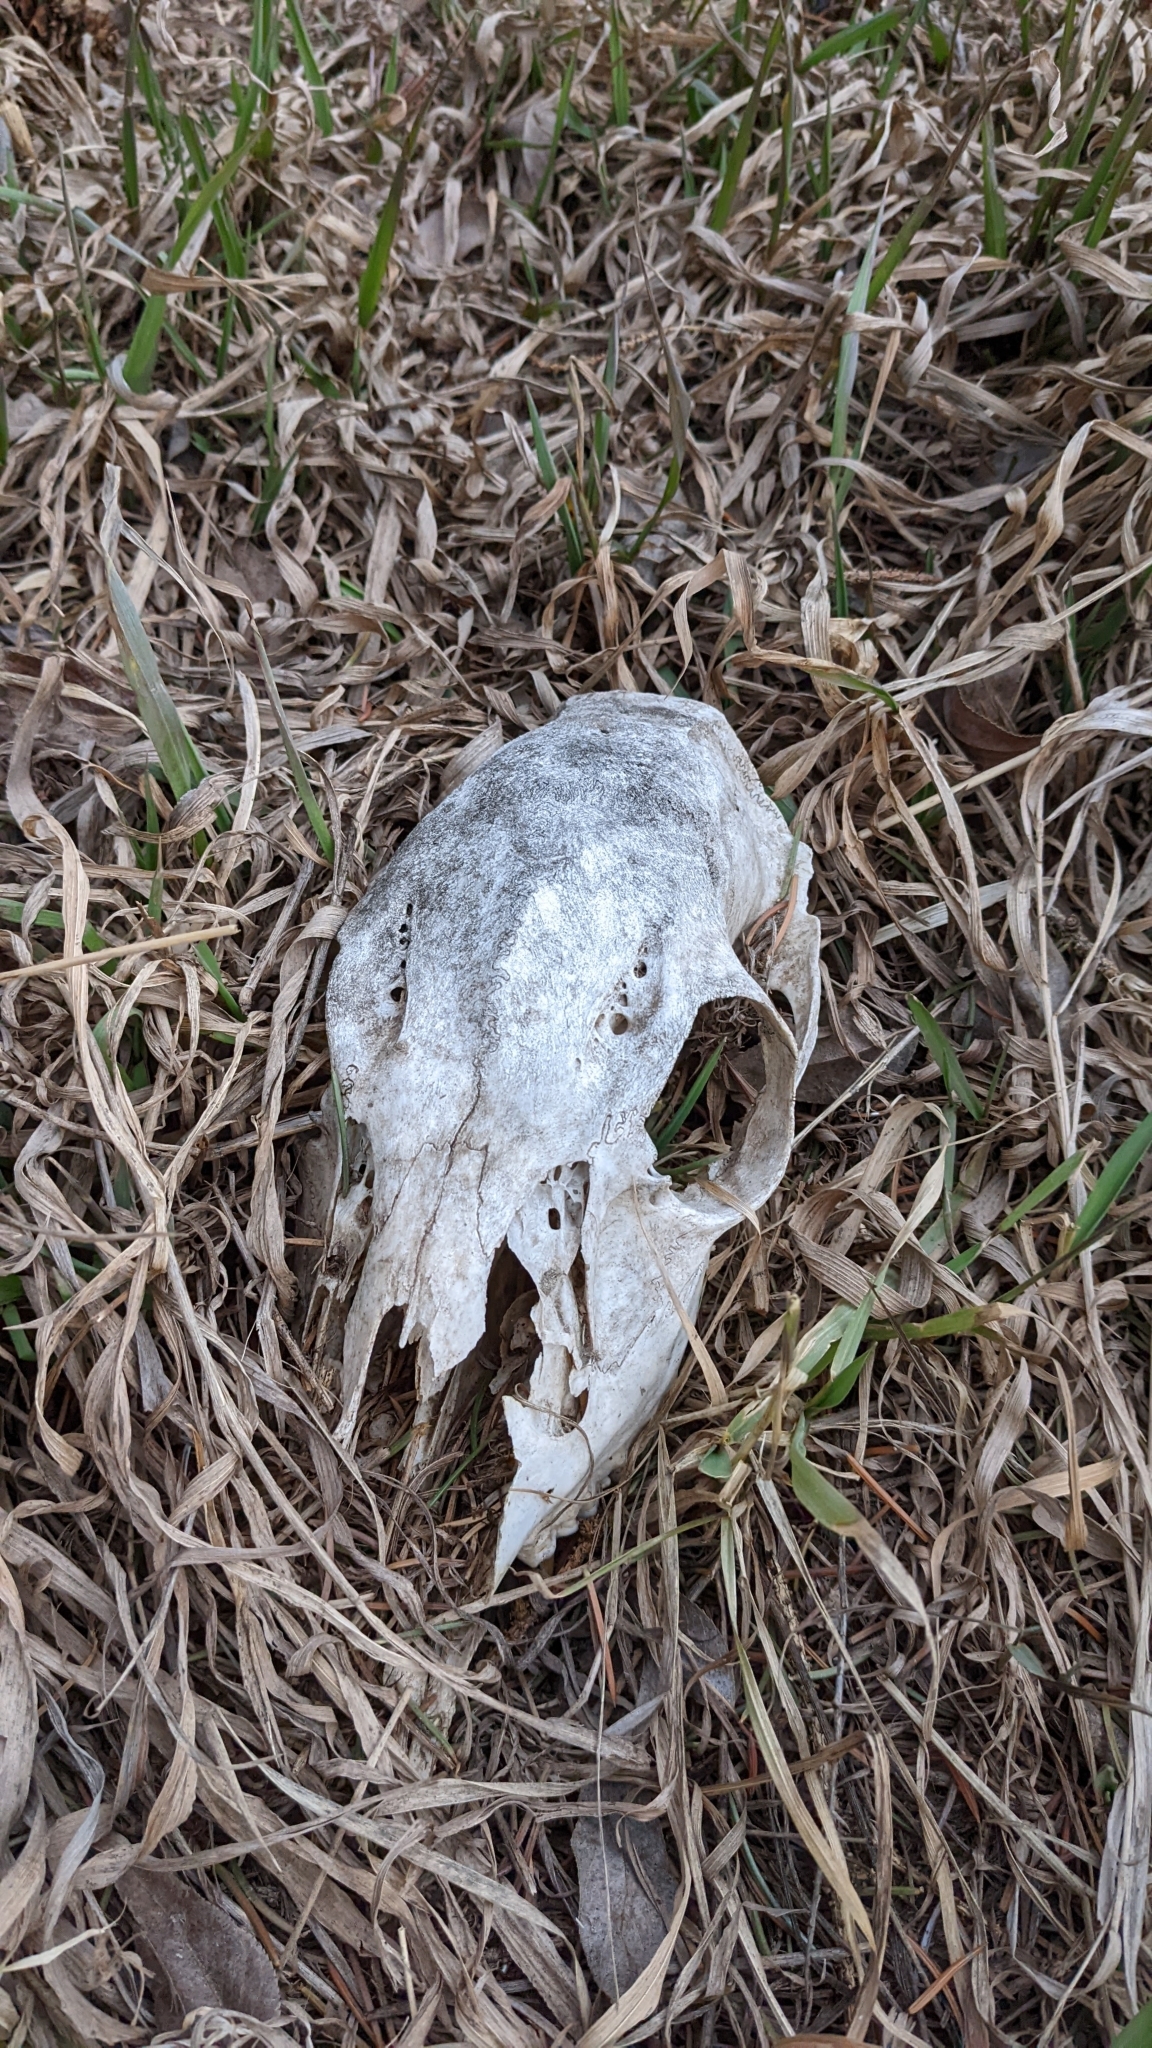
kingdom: Animalia
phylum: Chordata
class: Mammalia
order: Artiodactyla
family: Cervidae
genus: Odocoileus
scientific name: Odocoileus virginianus
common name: White-tailed deer
